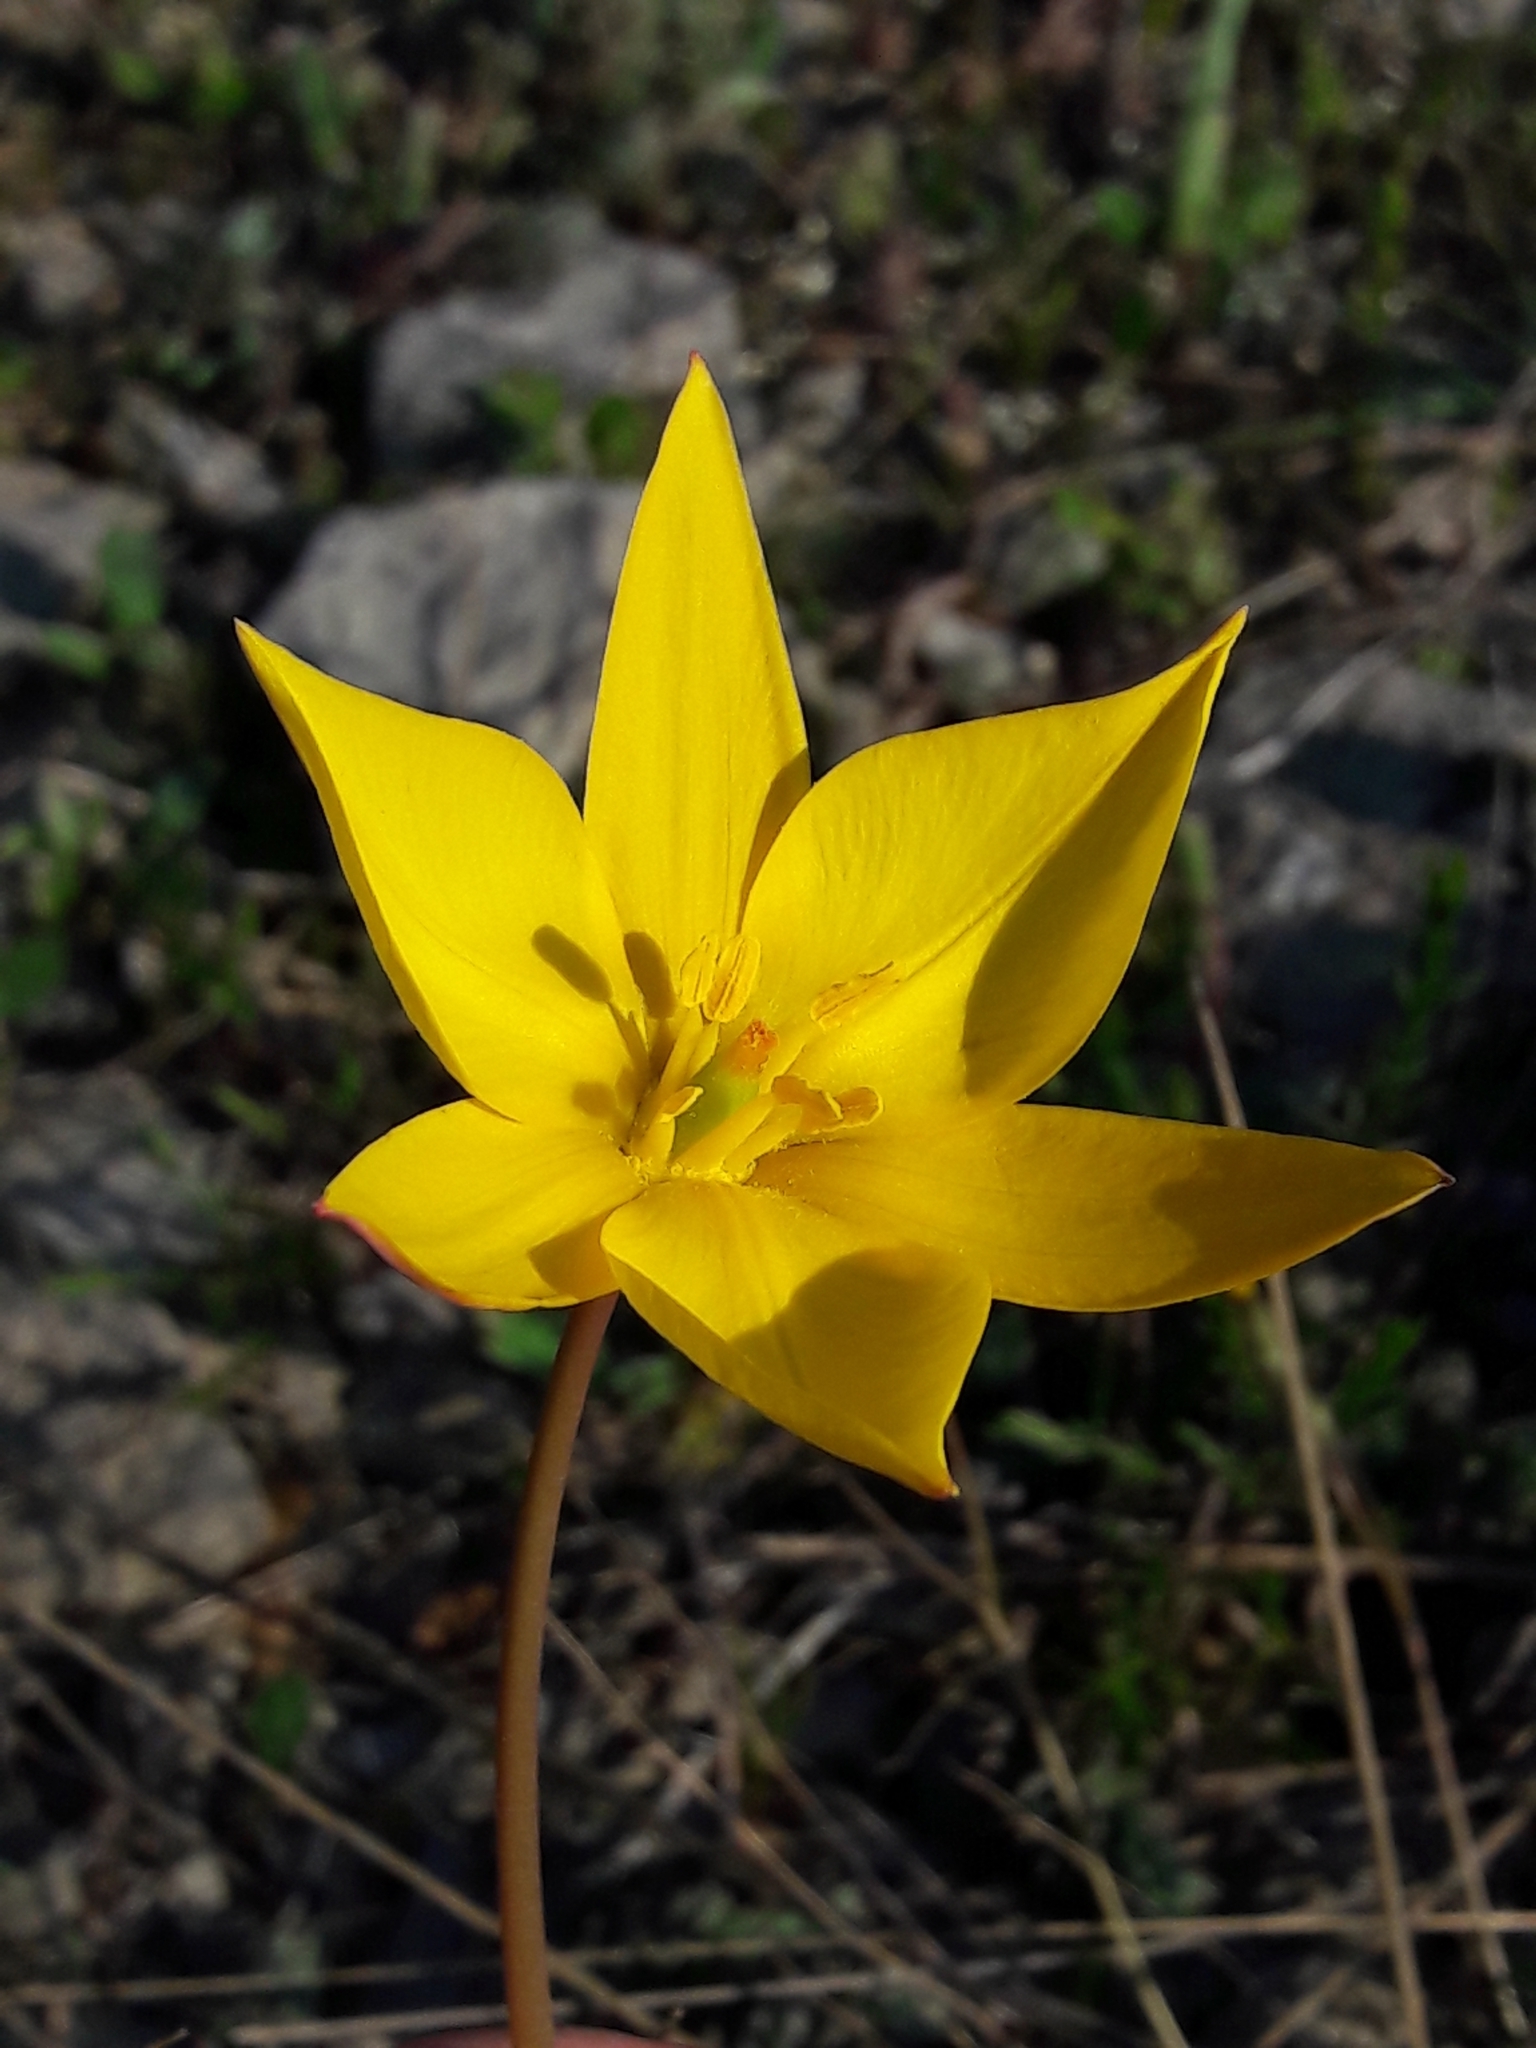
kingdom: Plantae
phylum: Tracheophyta
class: Liliopsida
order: Liliales
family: Liliaceae
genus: Tulipa
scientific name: Tulipa sylvestris
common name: Wild tulip
